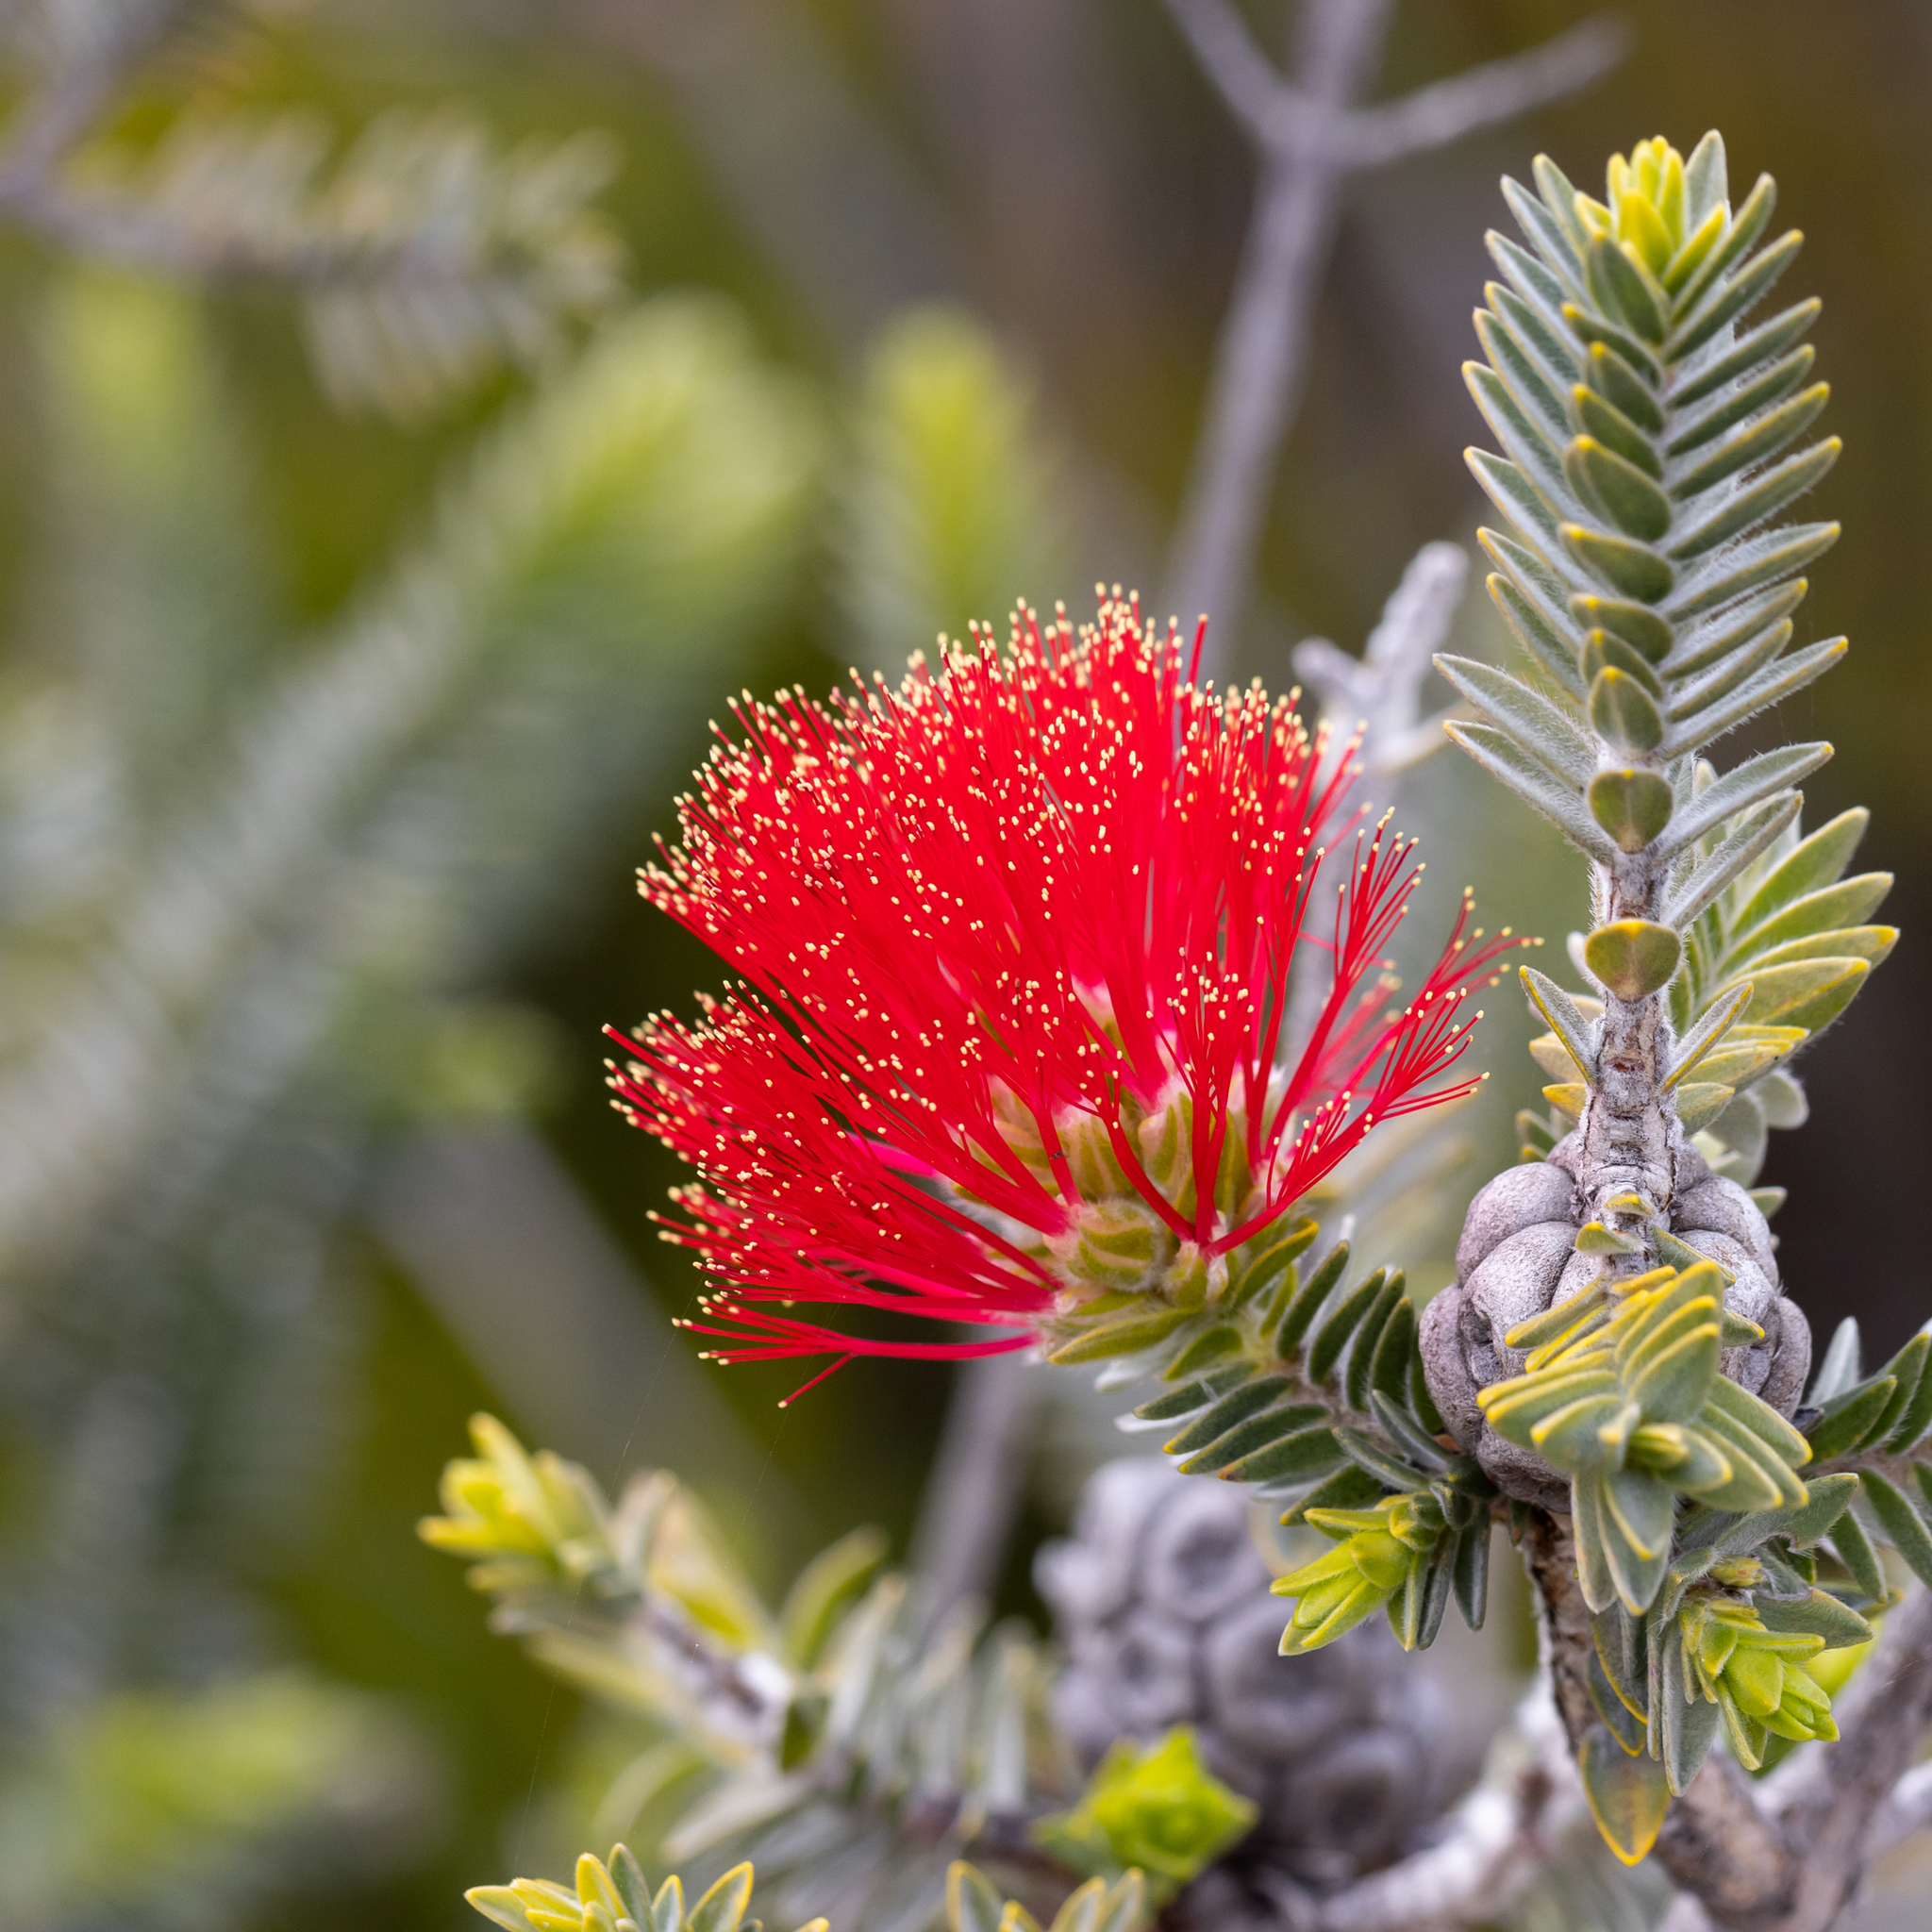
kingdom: Plantae
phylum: Tracheophyta
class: Magnoliopsida
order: Myrtales
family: Myrtaceae
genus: Melaleuca
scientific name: Melaleuca velutina
